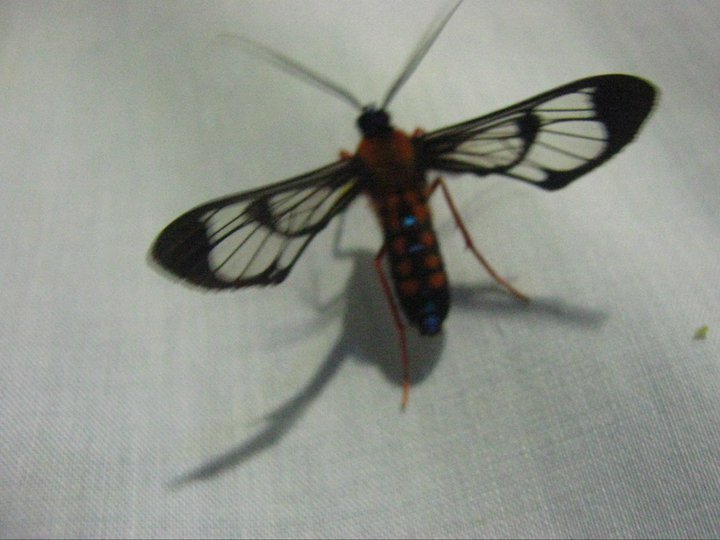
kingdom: Animalia
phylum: Arthropoda
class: Insecta
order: Lepidoptera
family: Erebidae
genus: Cosmosoma
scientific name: Cosmosoma sectinota
